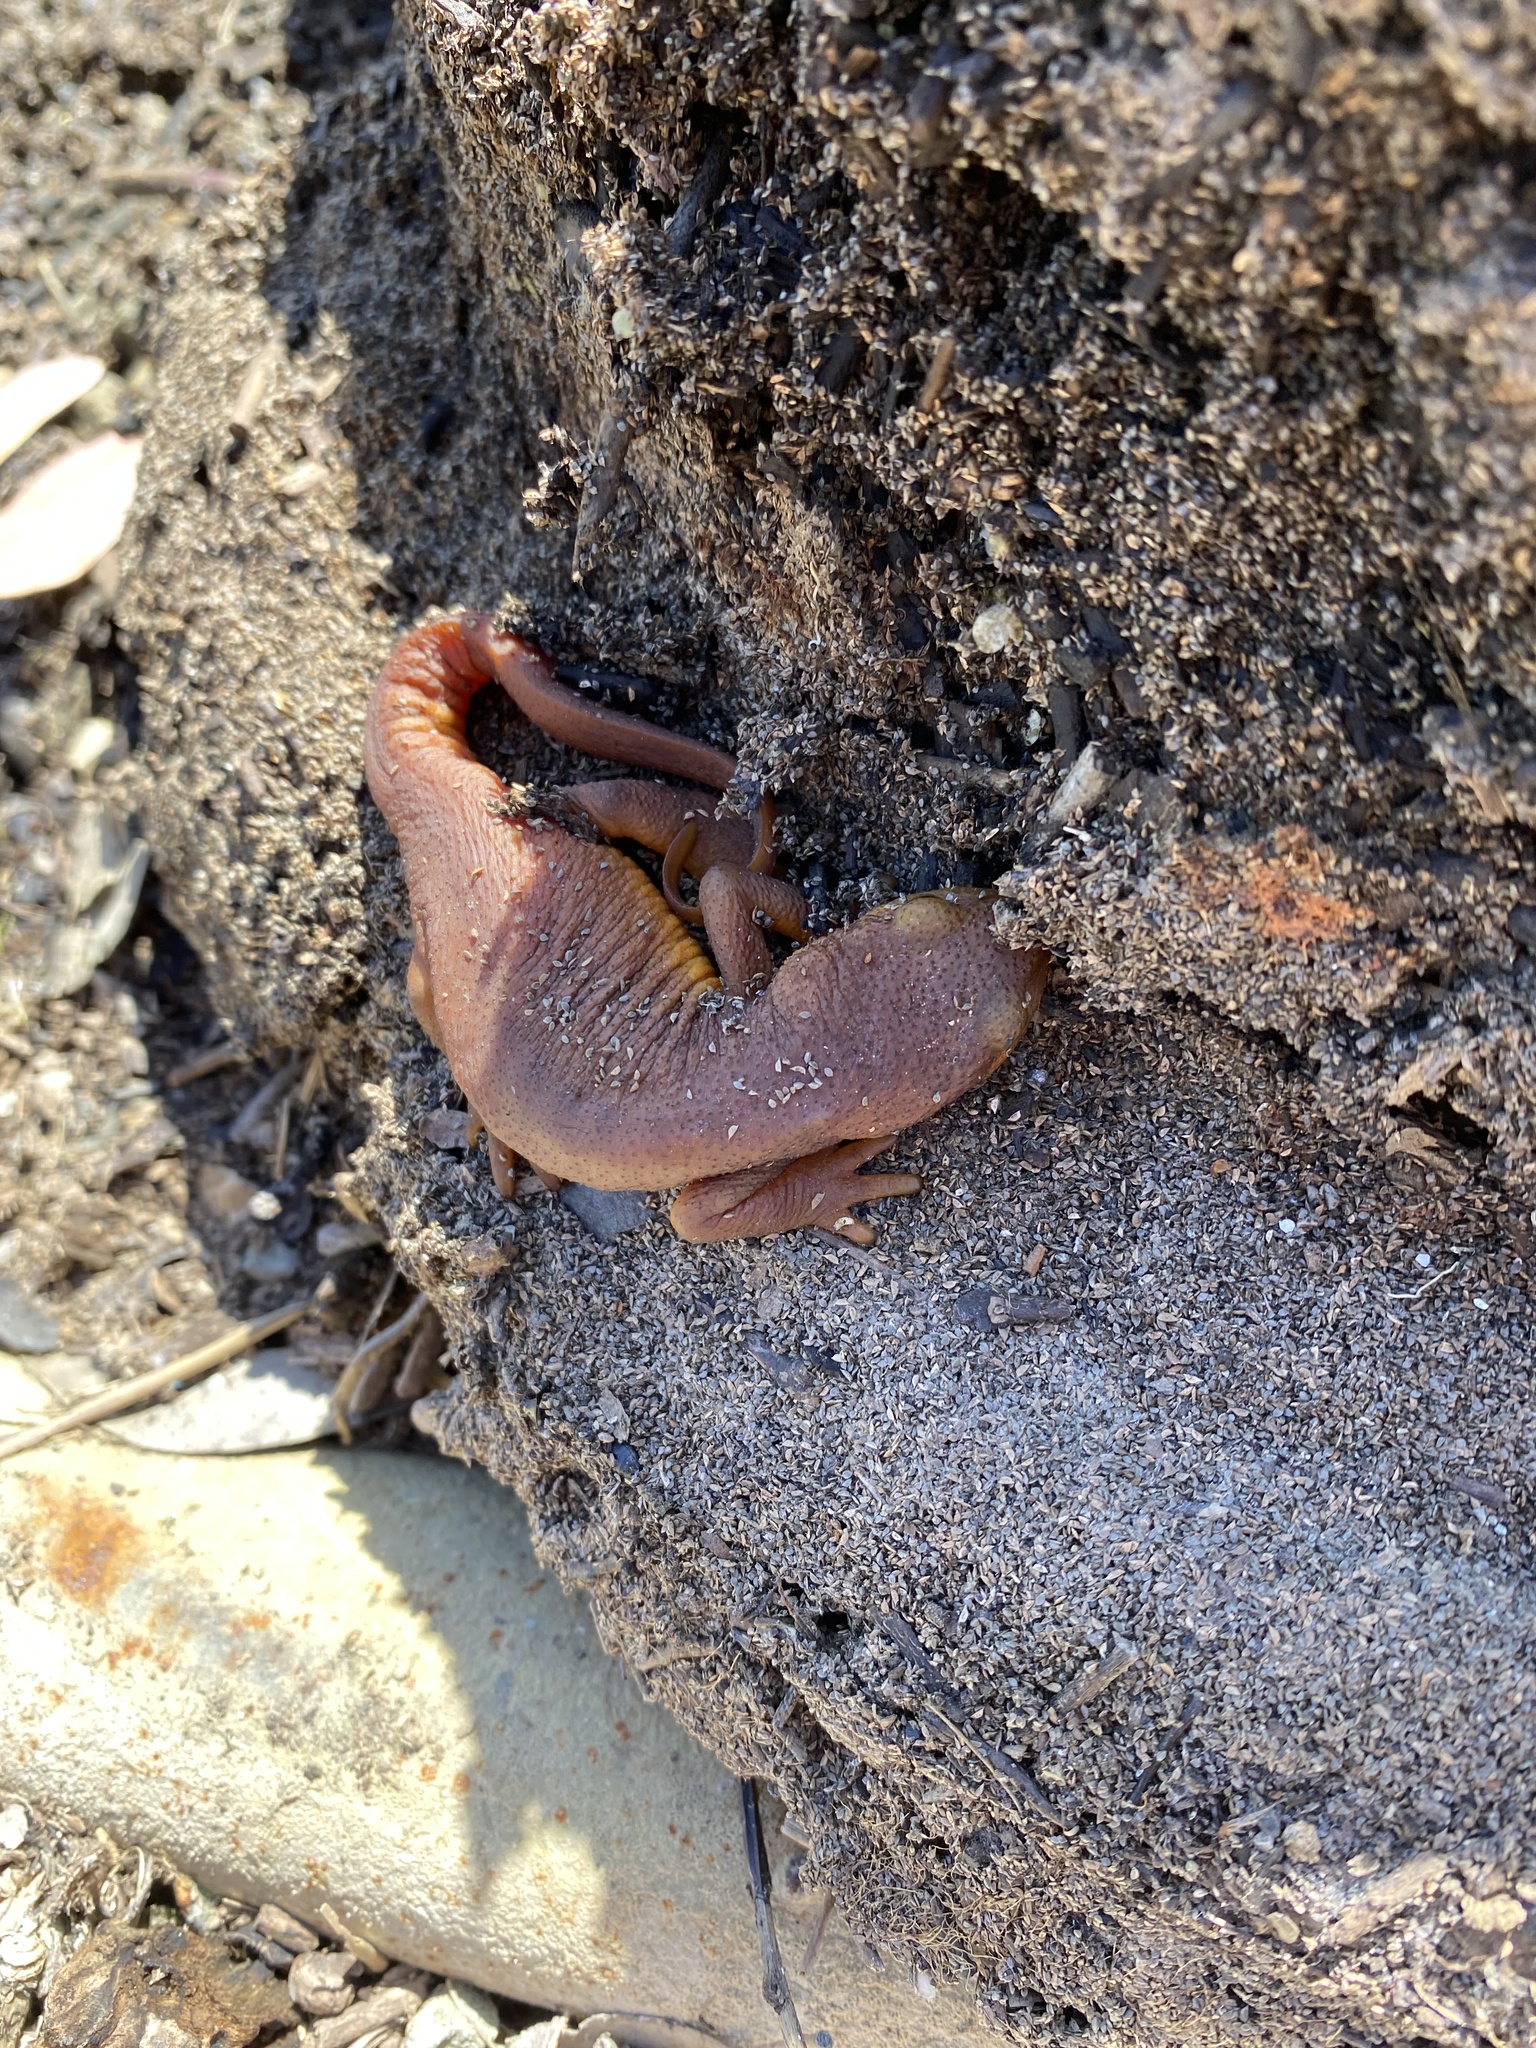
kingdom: Animalia
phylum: Chordata
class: Amphibia
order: Caudata
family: Salamandridae
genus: Taricha
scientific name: Taricha torosa
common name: California newt
